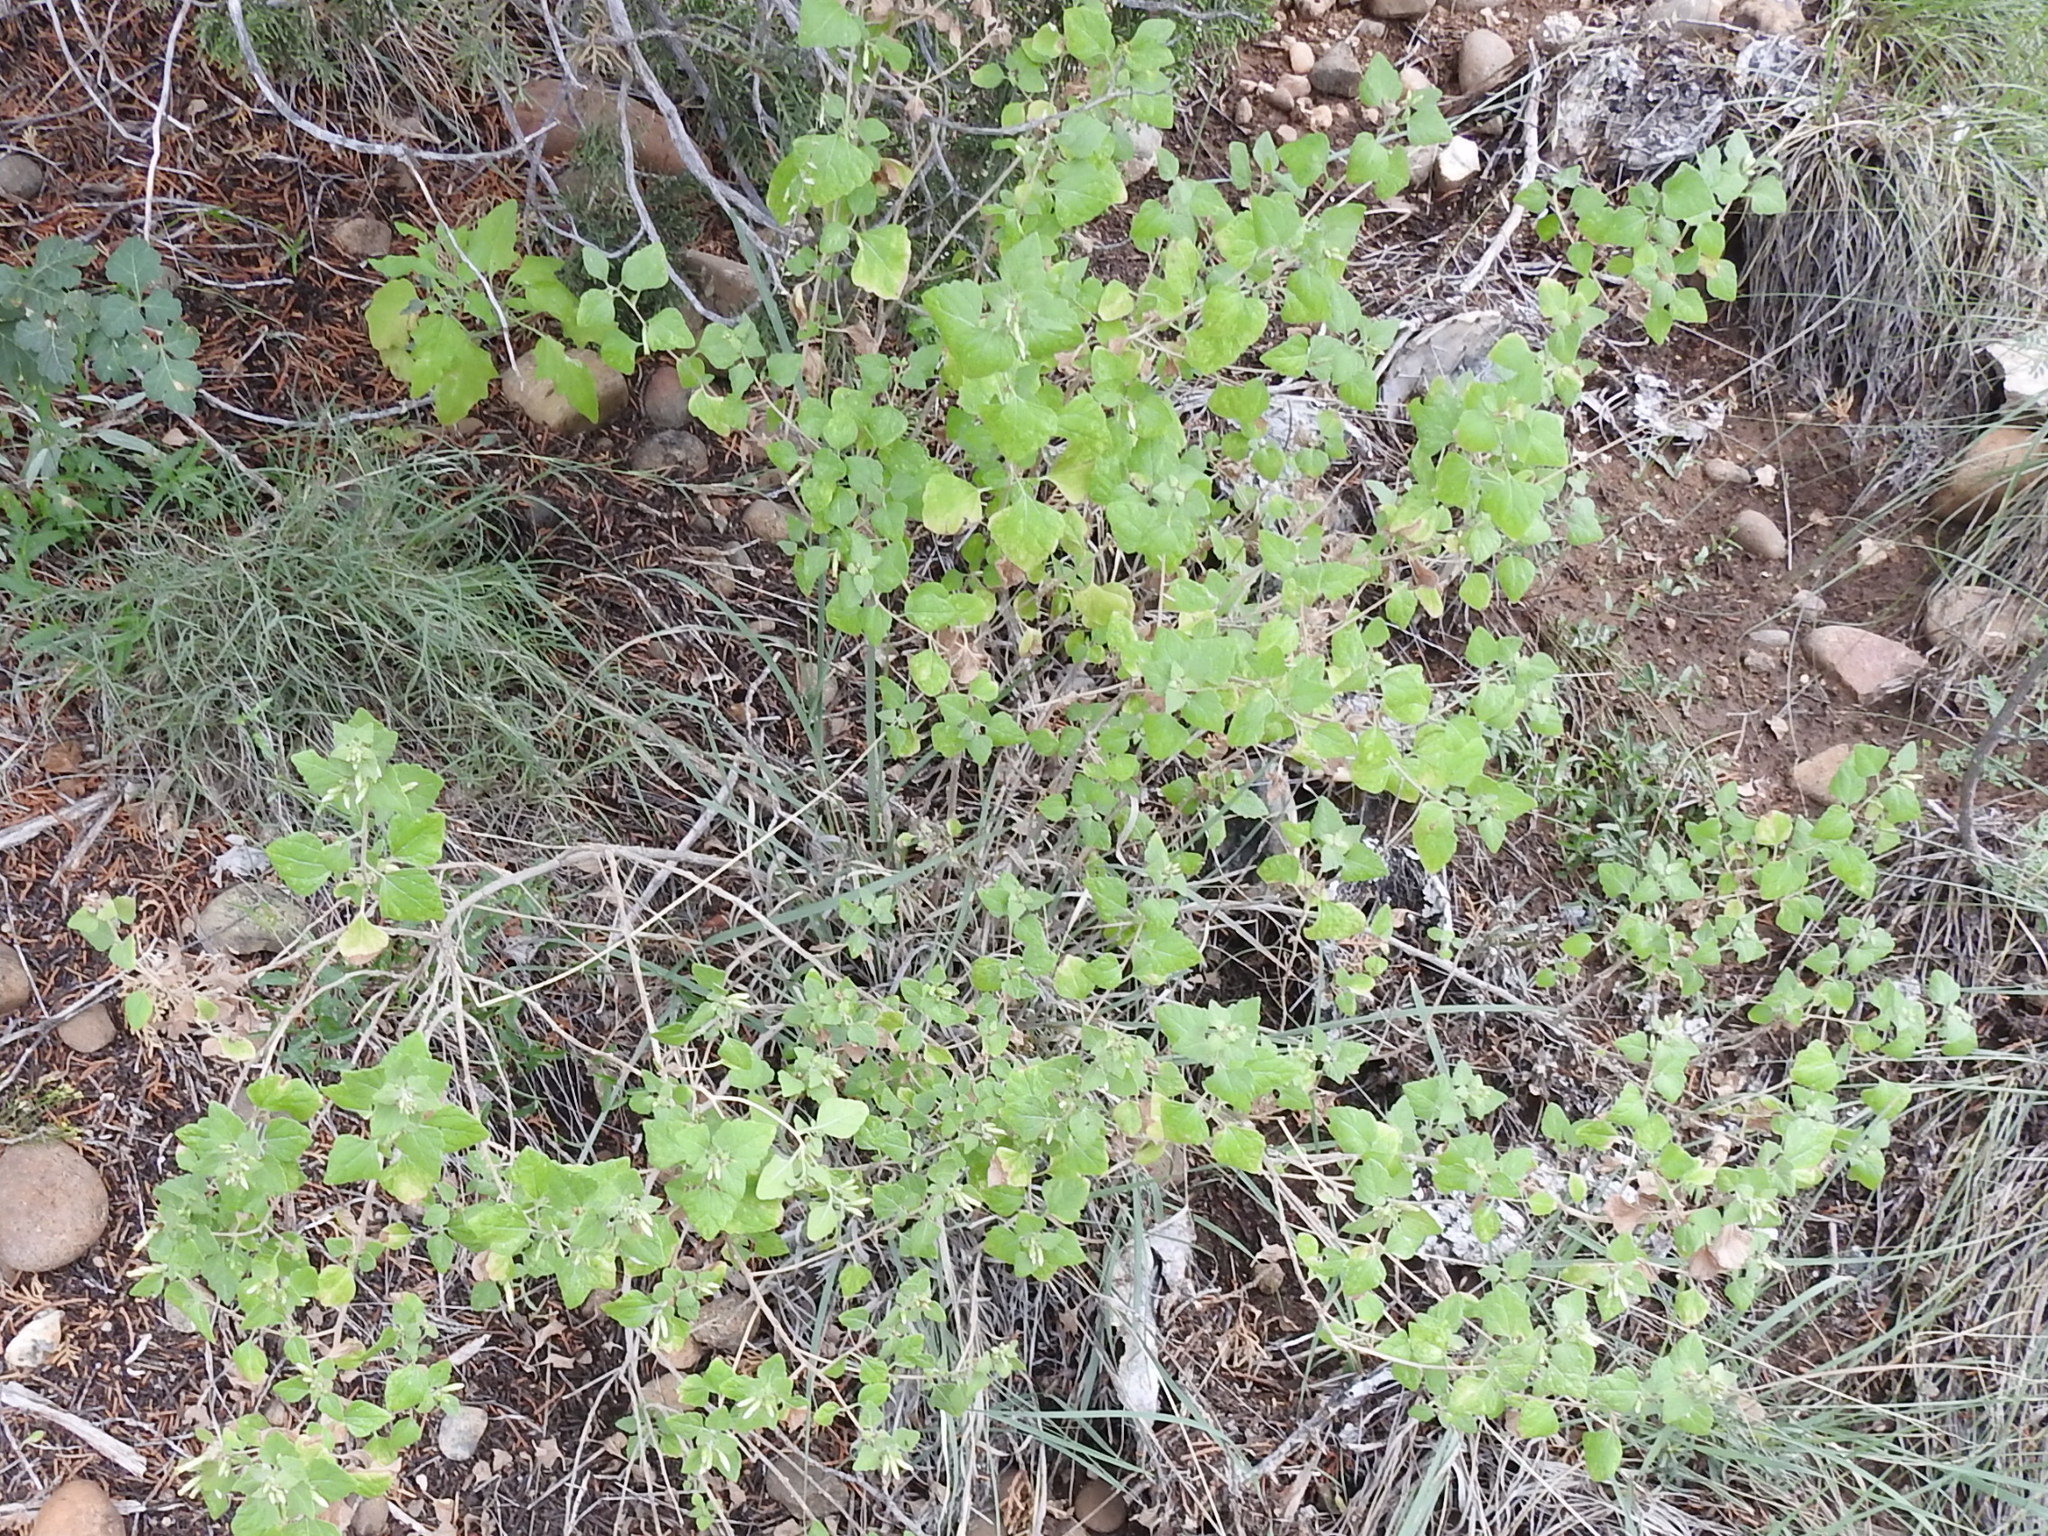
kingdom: Plantae
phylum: Tracheophyta
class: Magnoliopsida
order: Asterales
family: Asteraceae
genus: Brickellia
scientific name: Brickellia californica
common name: California brickellbush
